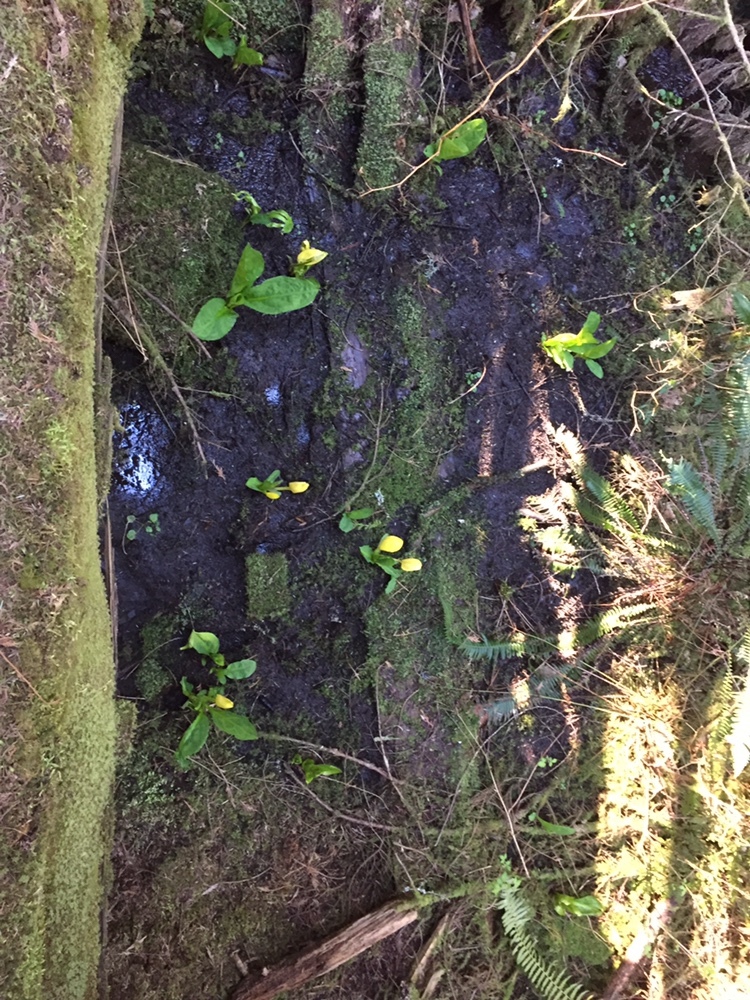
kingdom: Plantae
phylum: Tracheophyta
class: Liliopsida
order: Alismatales
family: Araceae
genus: Lysichiton
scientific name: Lysichiton americanus
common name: American skunk cabbage
